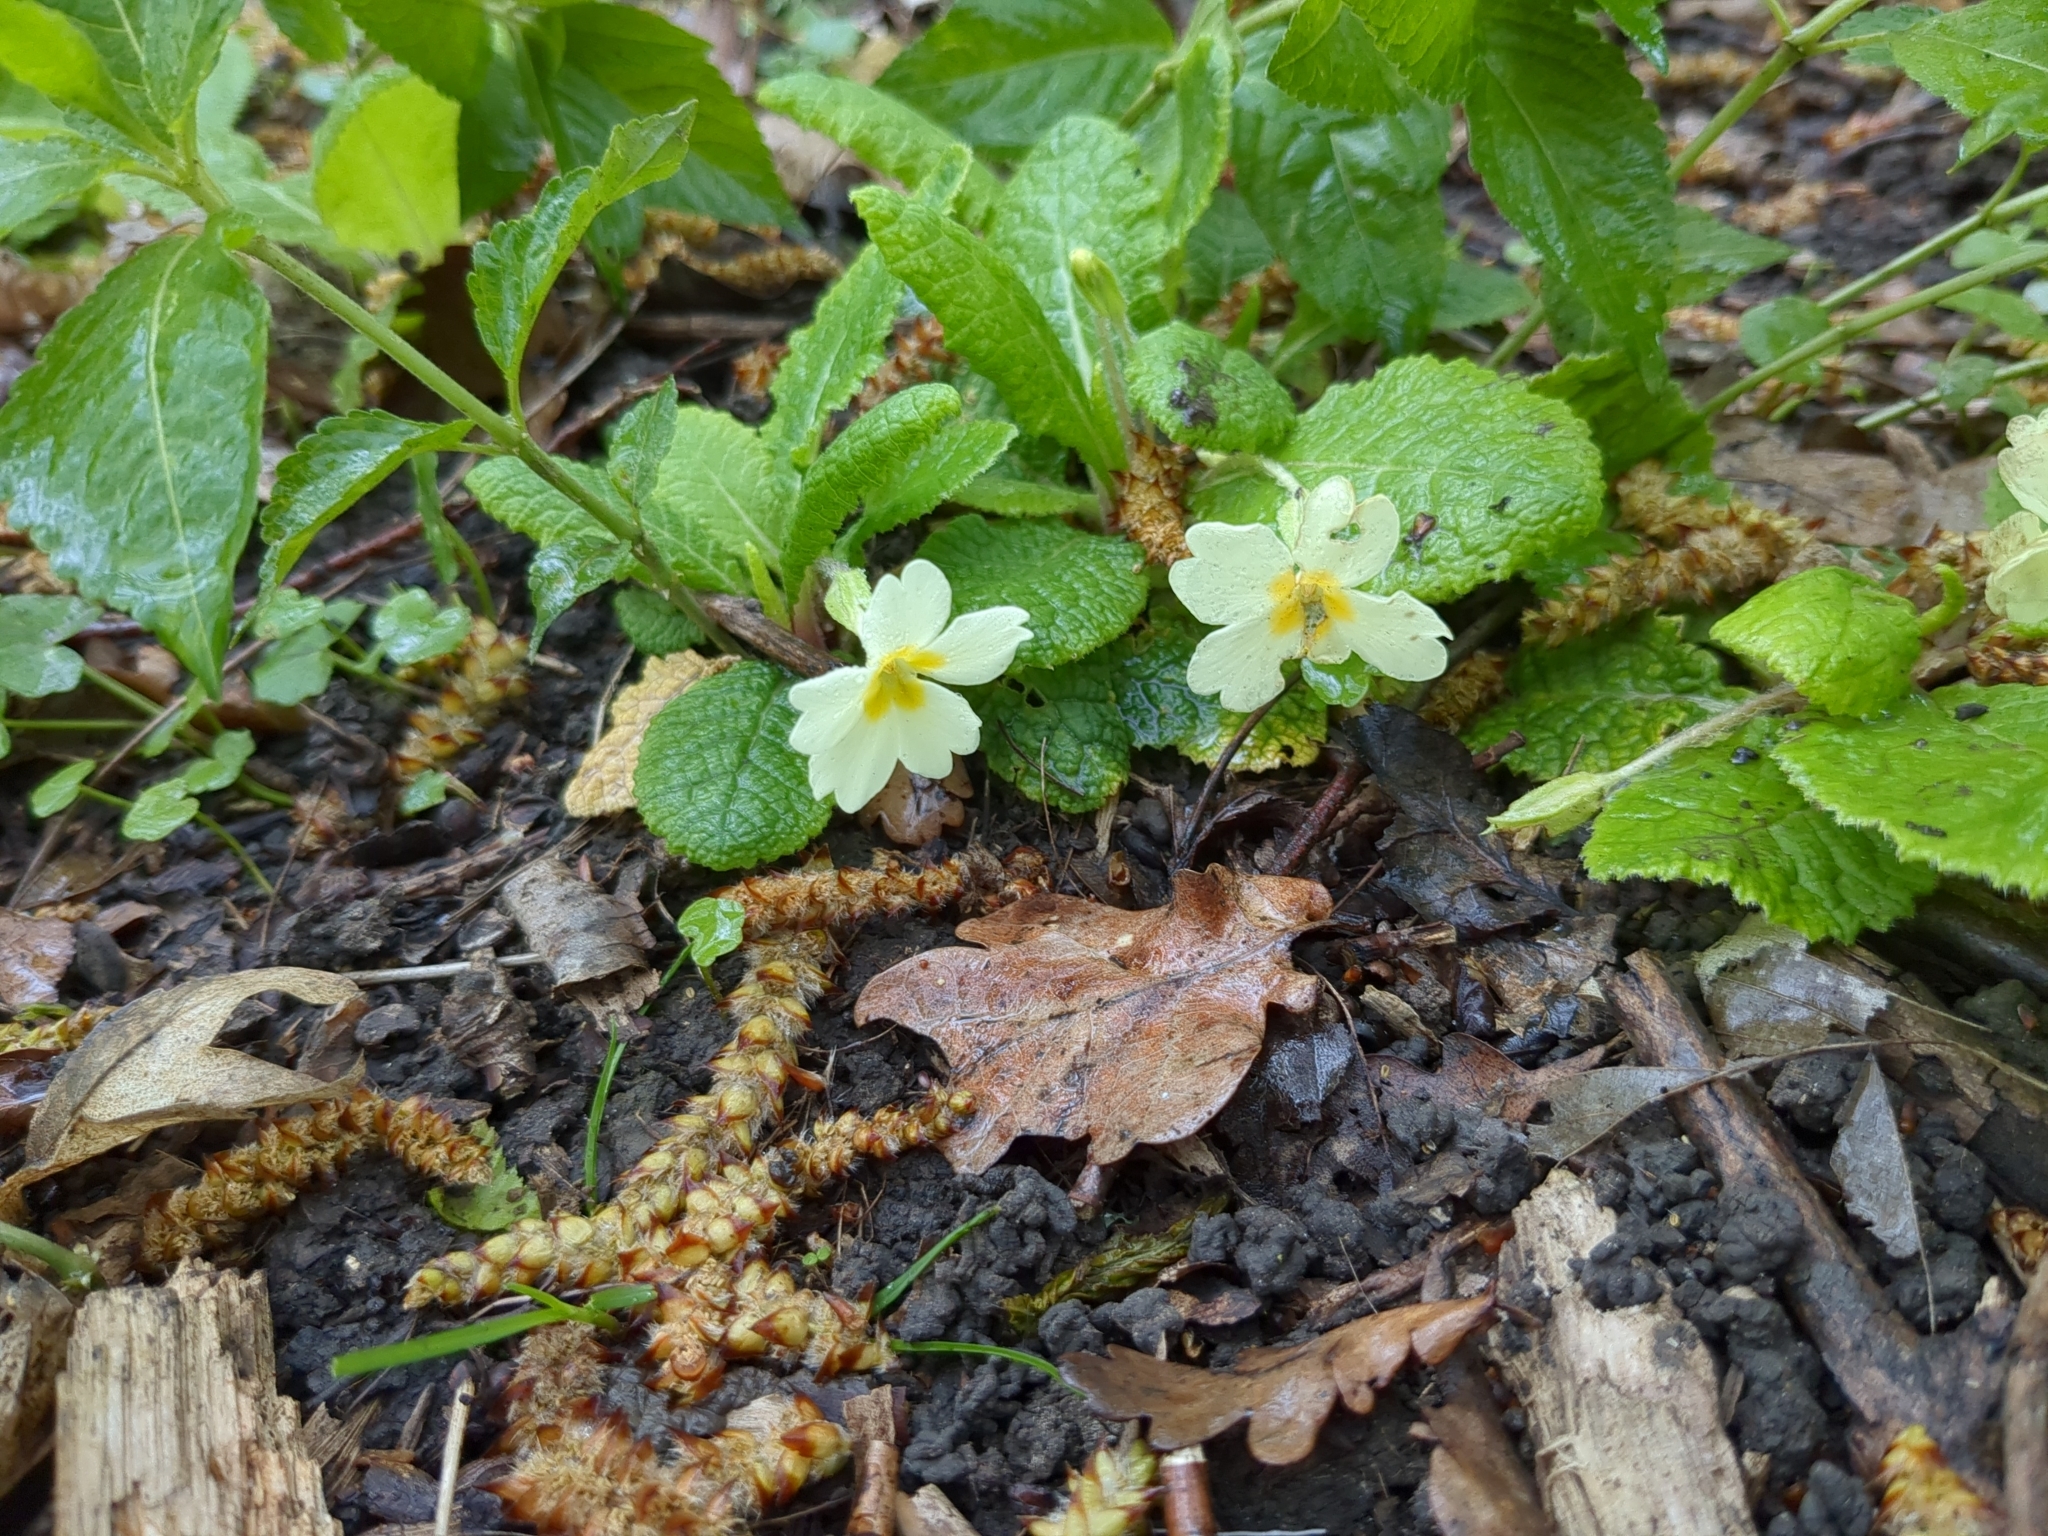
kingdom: Plantae
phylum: Tracheophyta
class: Magnoliopsida
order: Ericales
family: Primulaceae
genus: Primula
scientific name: Primula vulgaris
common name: Primrose
